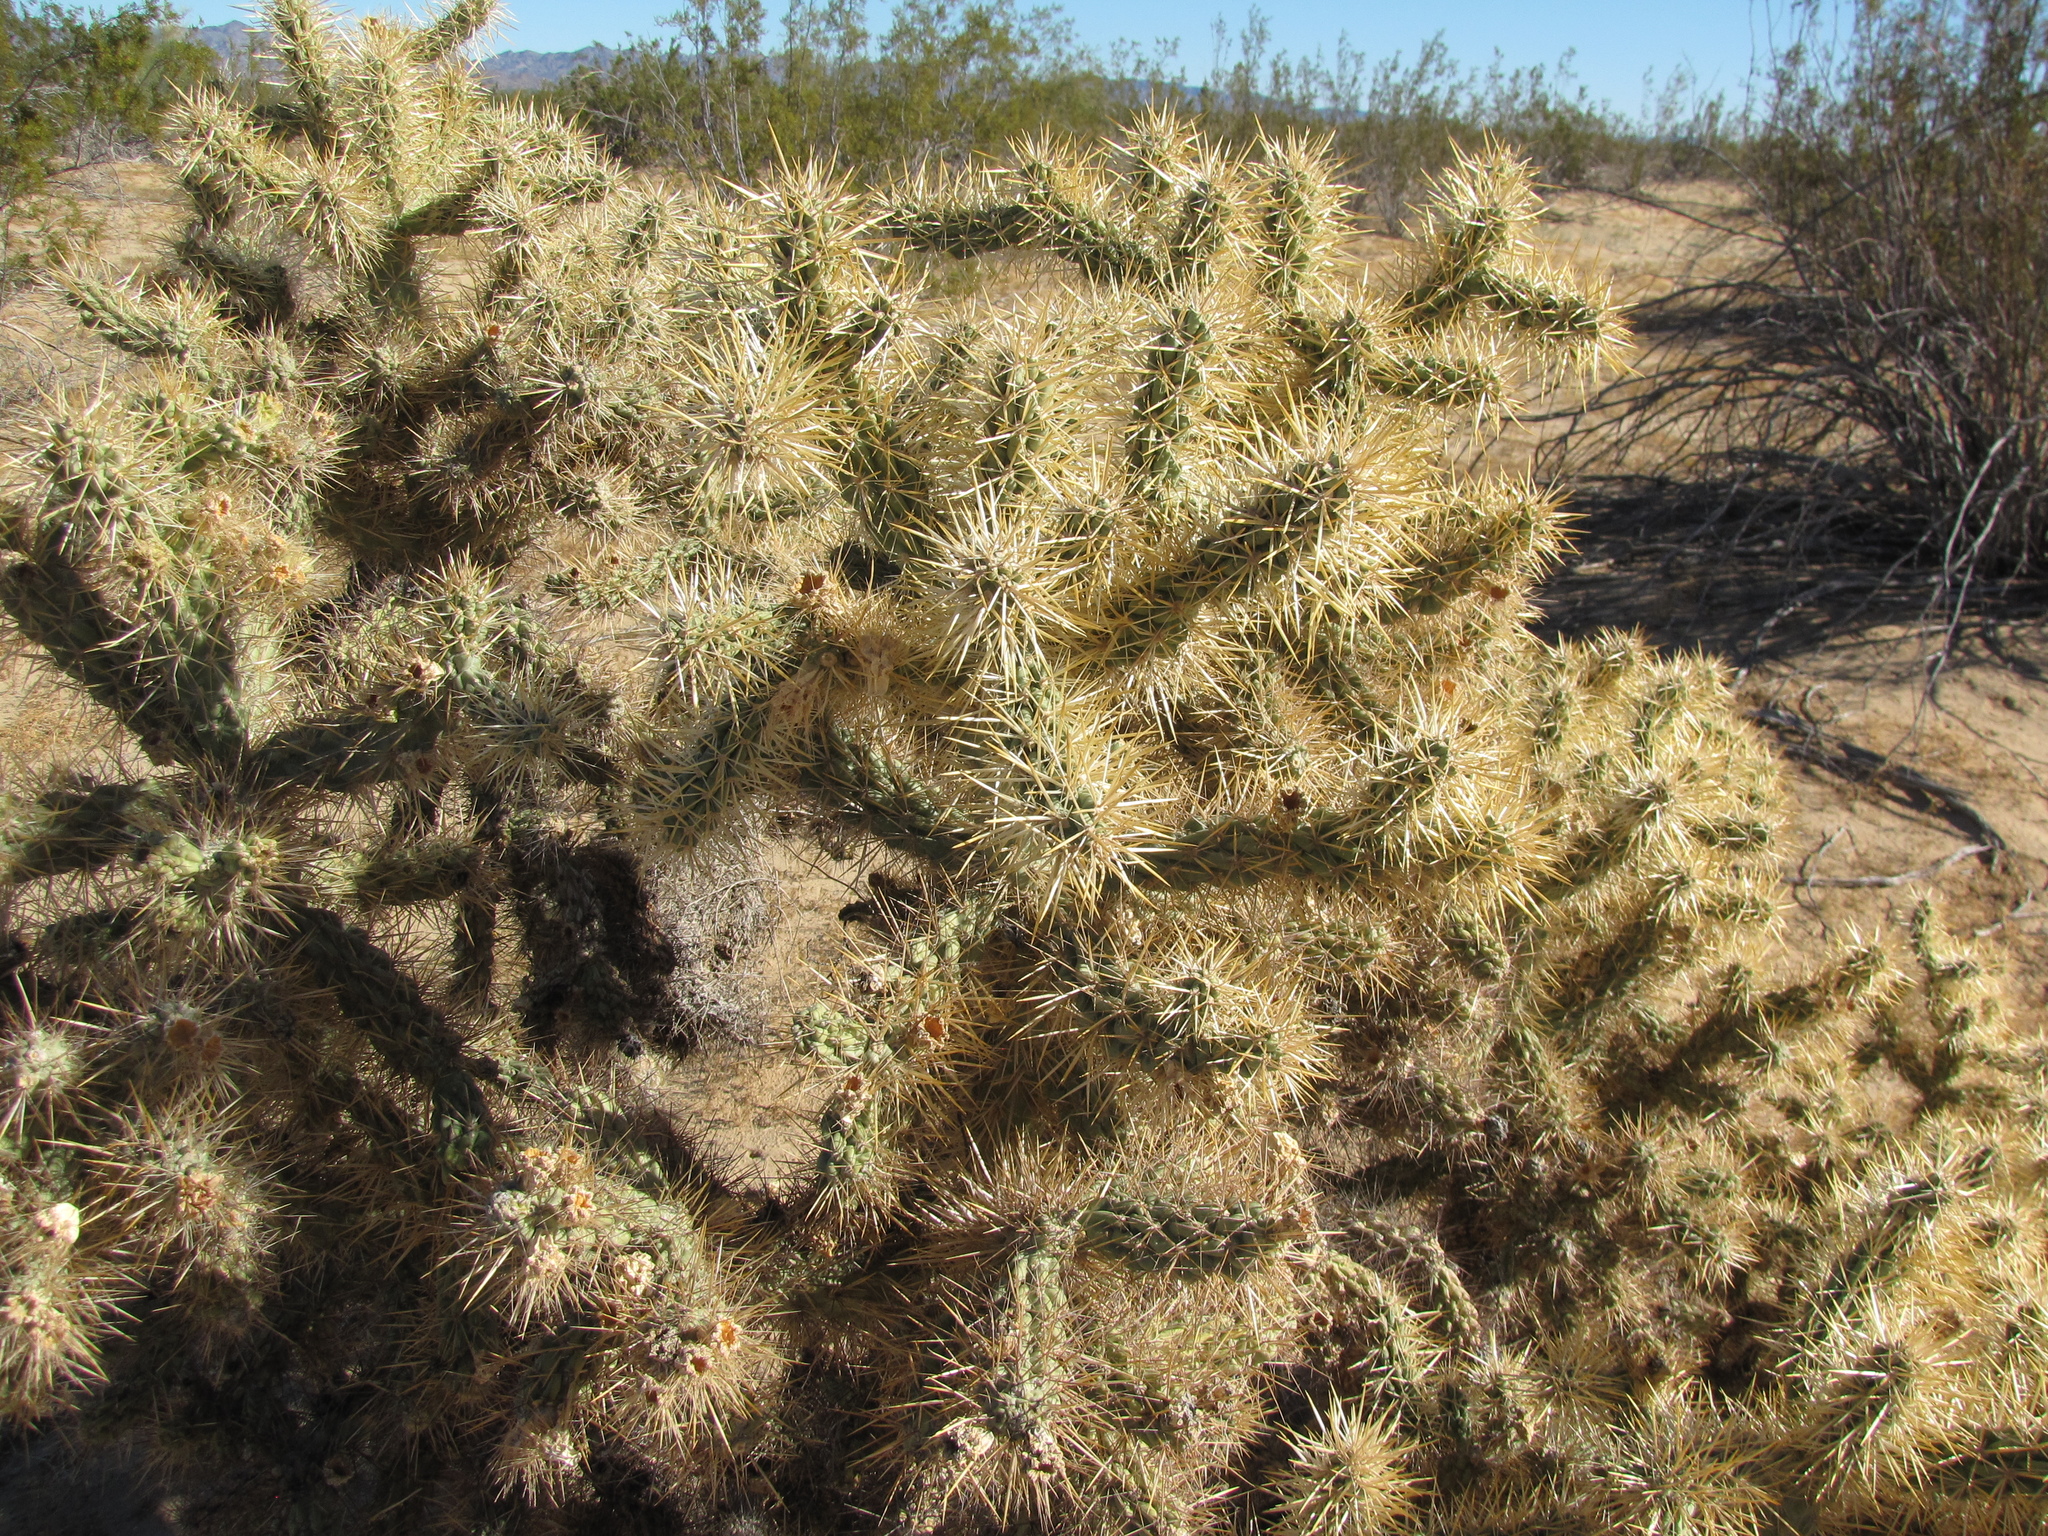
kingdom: Plantae
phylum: Tracheophyta
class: Magnoliopsida
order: Caryophyllales
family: Cactaceae
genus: Cylindropuntia
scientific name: Cylindropuntia echinocarpa
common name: Ground cholla
